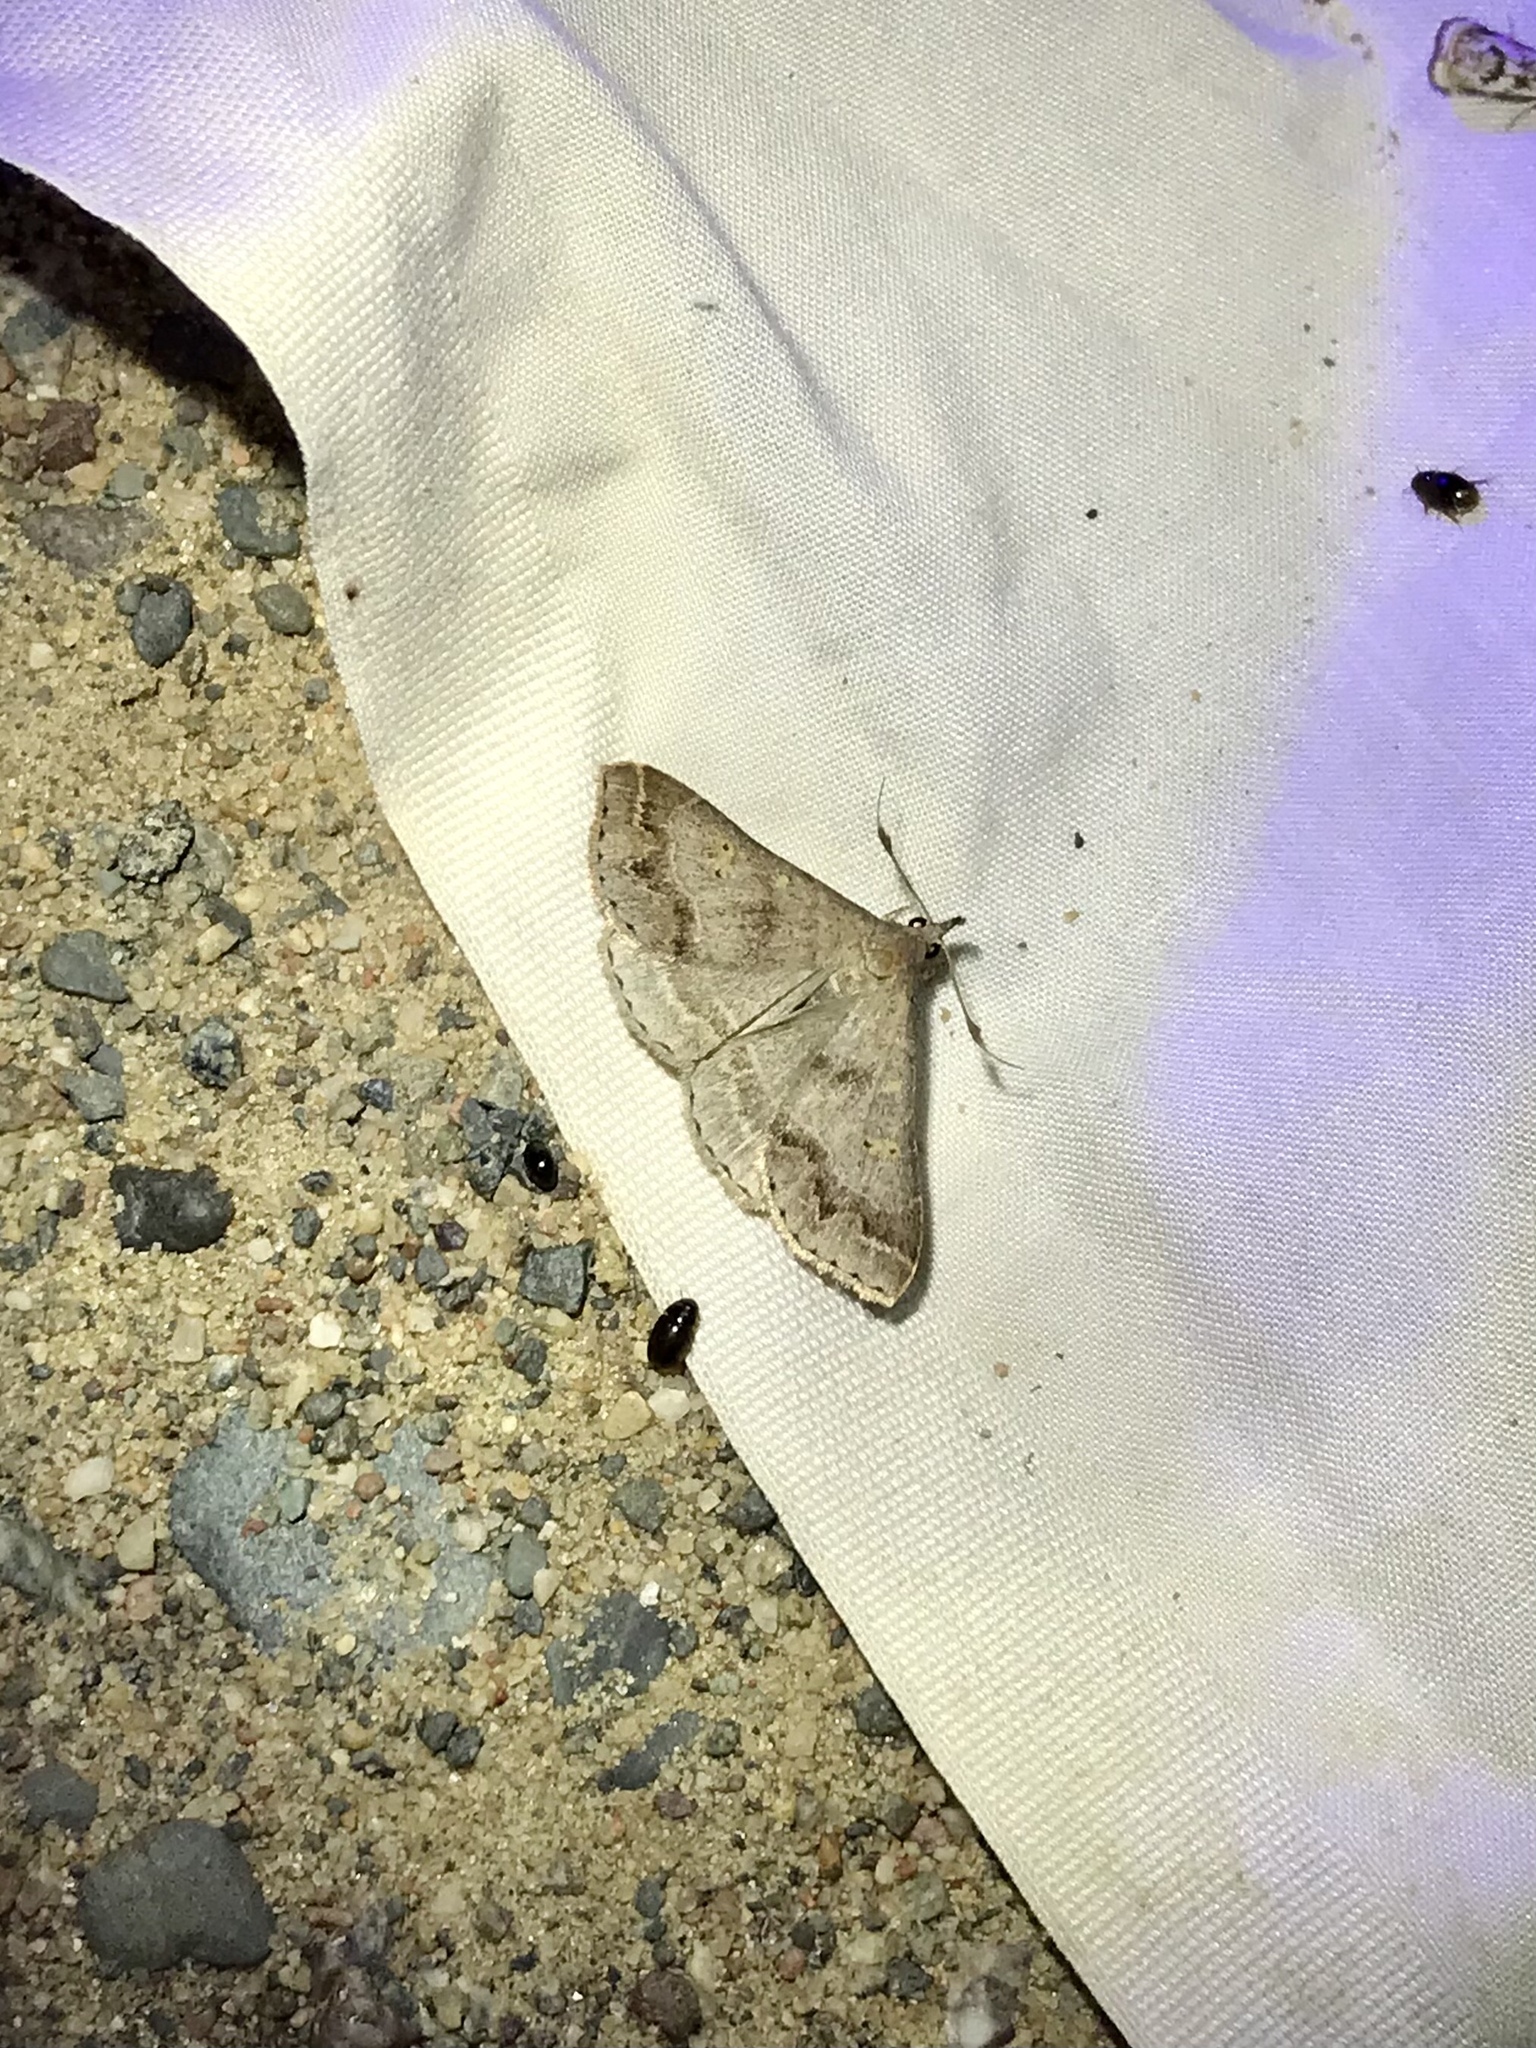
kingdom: Animalia
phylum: Arthropoda
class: Insecta
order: Lepidoptera
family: Erebidae
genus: Renia
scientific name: Renia flavipunctalis
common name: Yellow-spotted renia moth
